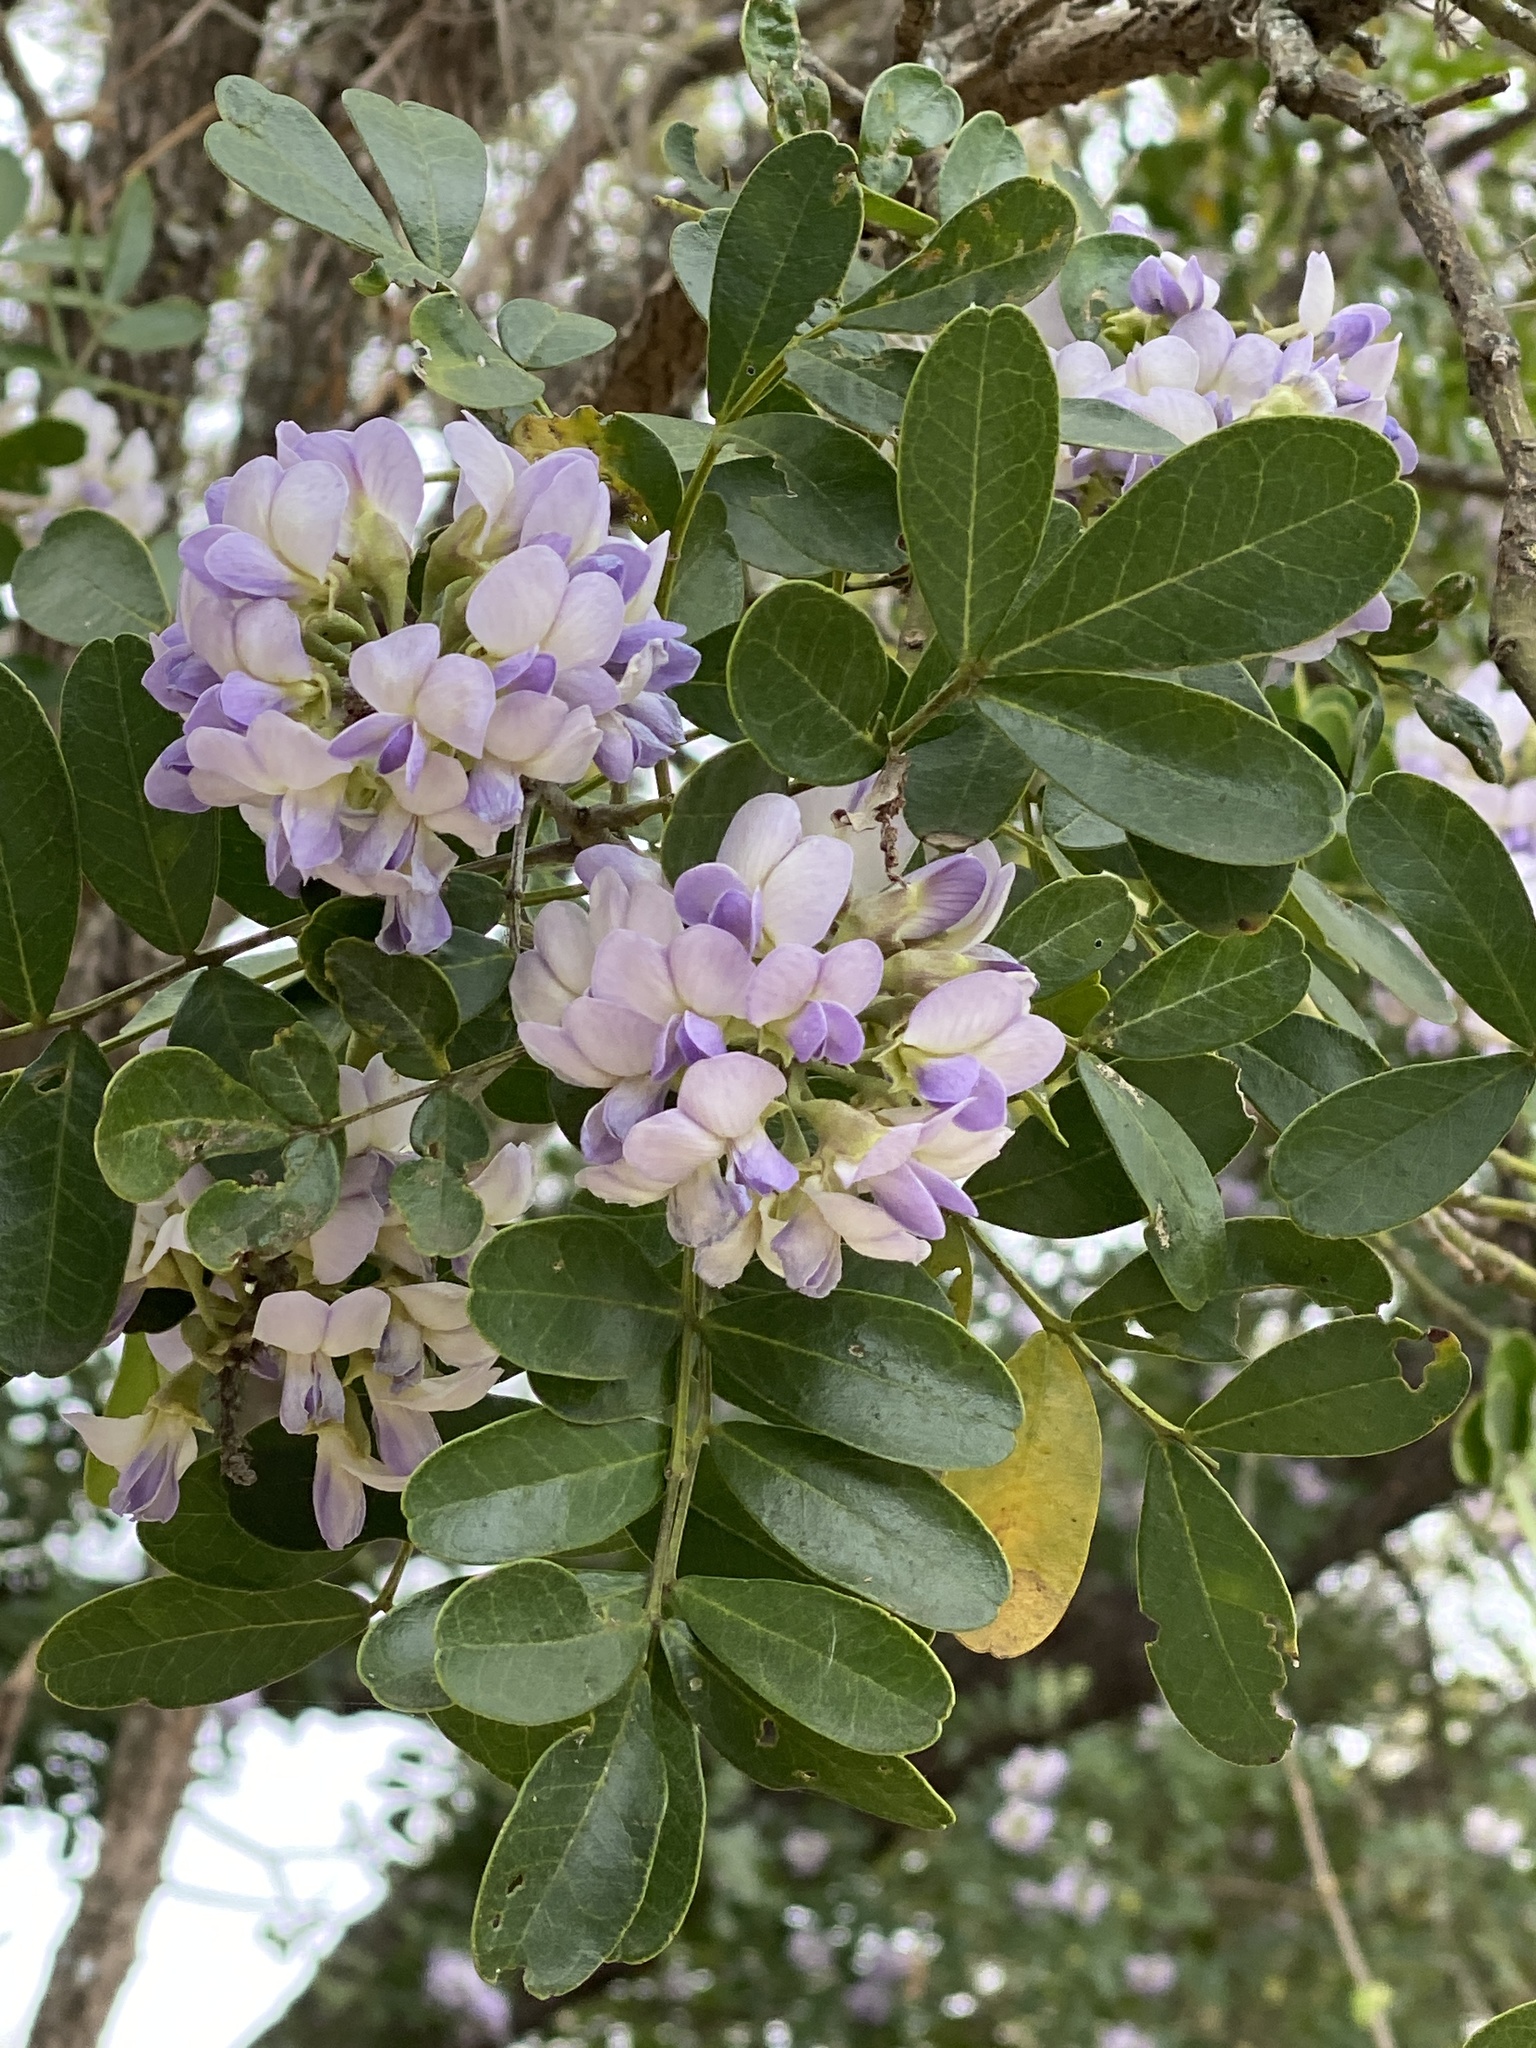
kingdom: Plantae
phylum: Tracheophyta
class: Magnoliopsida
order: Fabales
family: Fabaceae
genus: Dermatophyllum
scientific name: Dermatophyllum secundiflorum
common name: Texas-mountain-laurel
